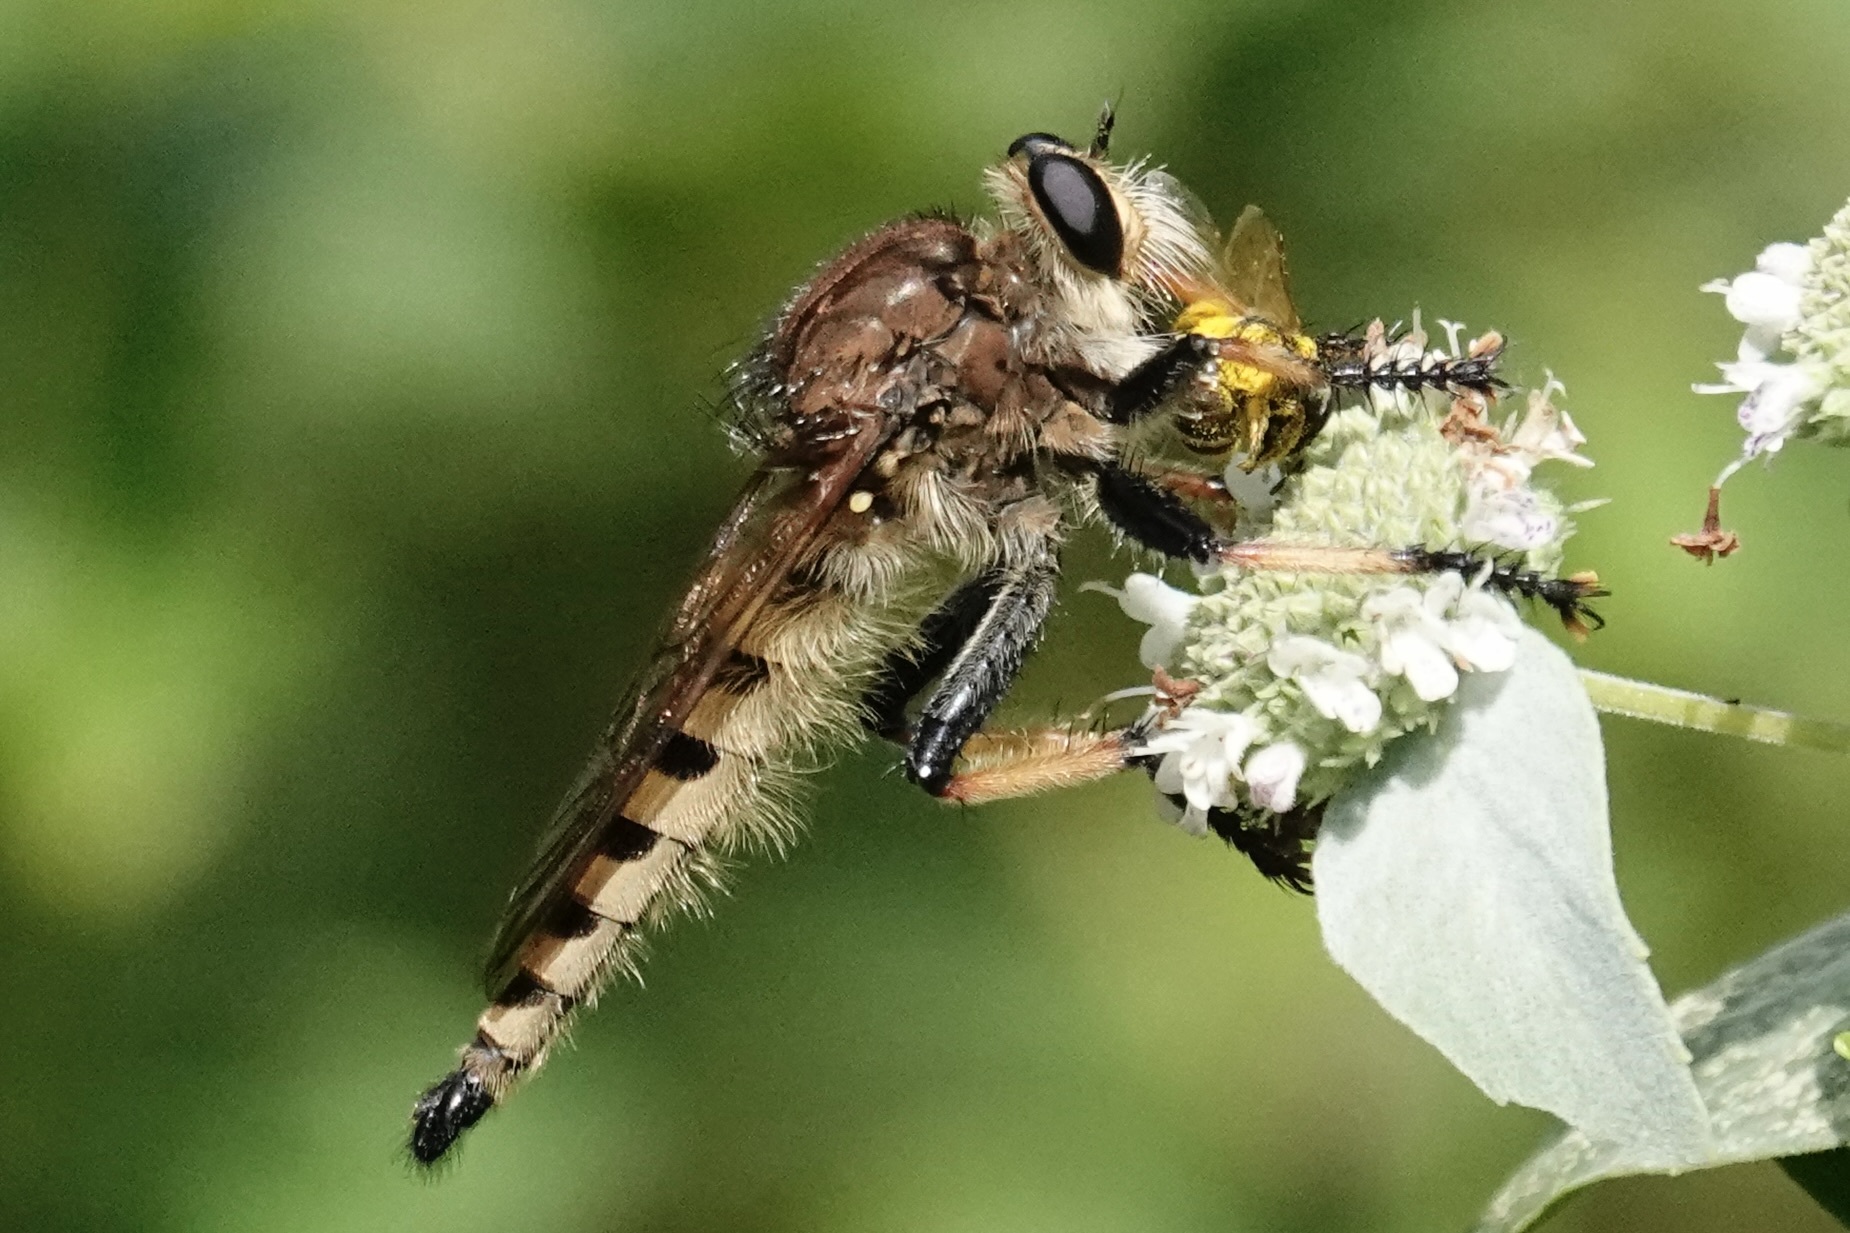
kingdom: Animalia
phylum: Arthropoda
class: Insecta
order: Diptera
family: Asilidae
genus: Promachus
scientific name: Promachus rufipes
